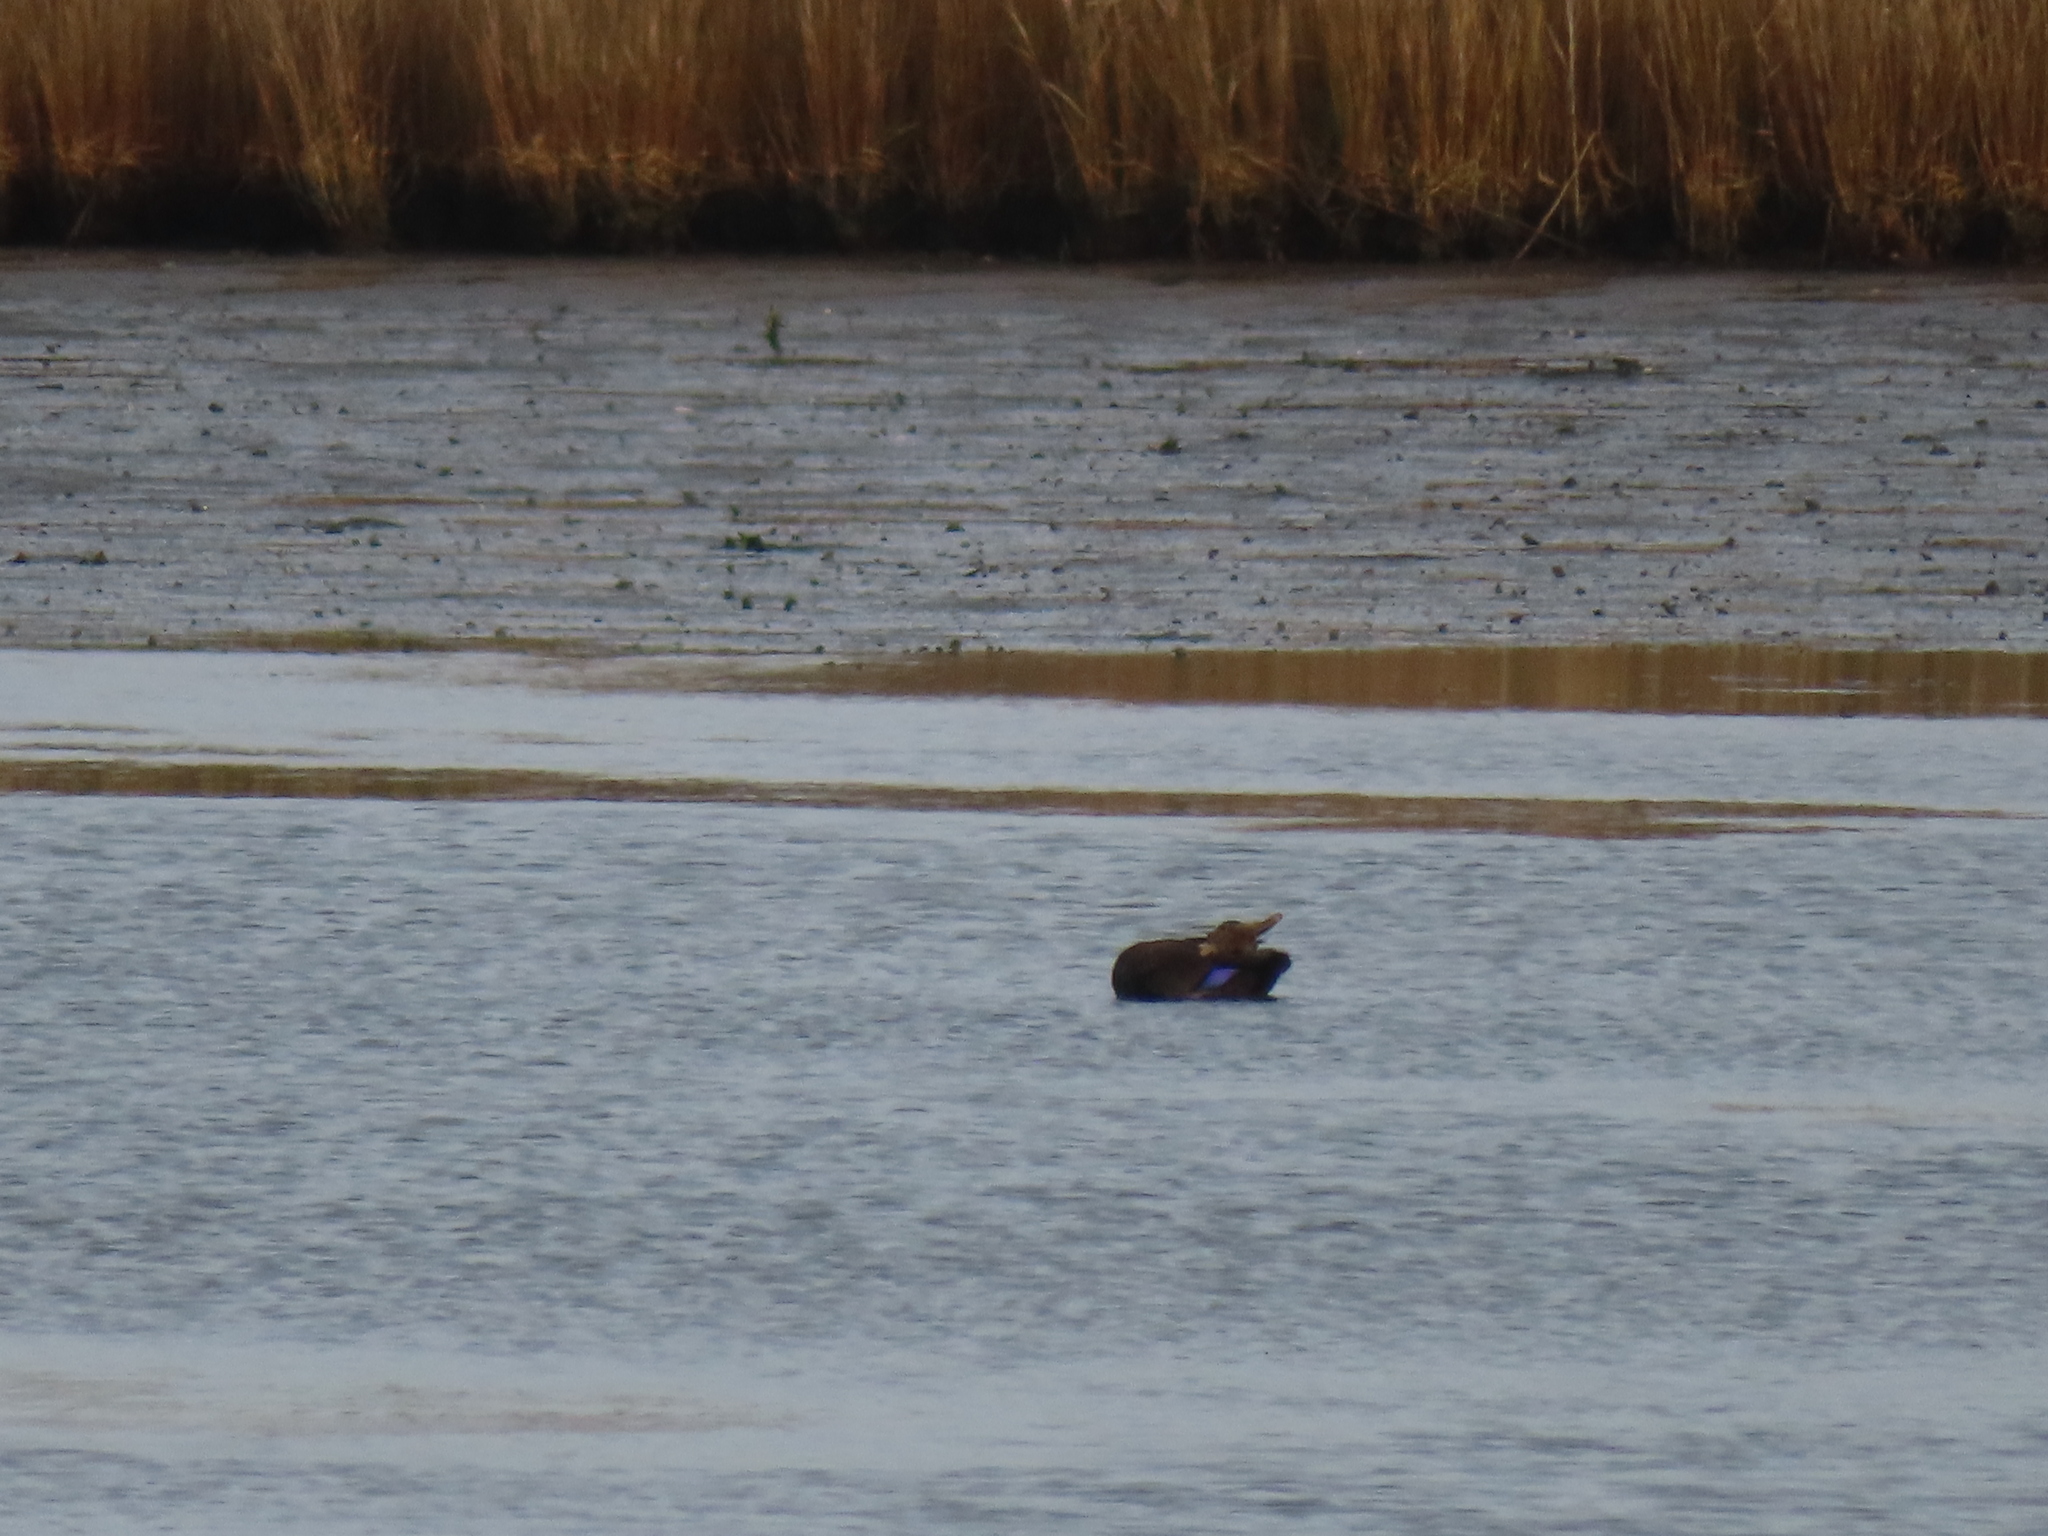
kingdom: Animalia
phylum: Chordata
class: Aves
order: Anseriformes
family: Anatidae
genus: Anas
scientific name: Anas rubripes
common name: American black duck
